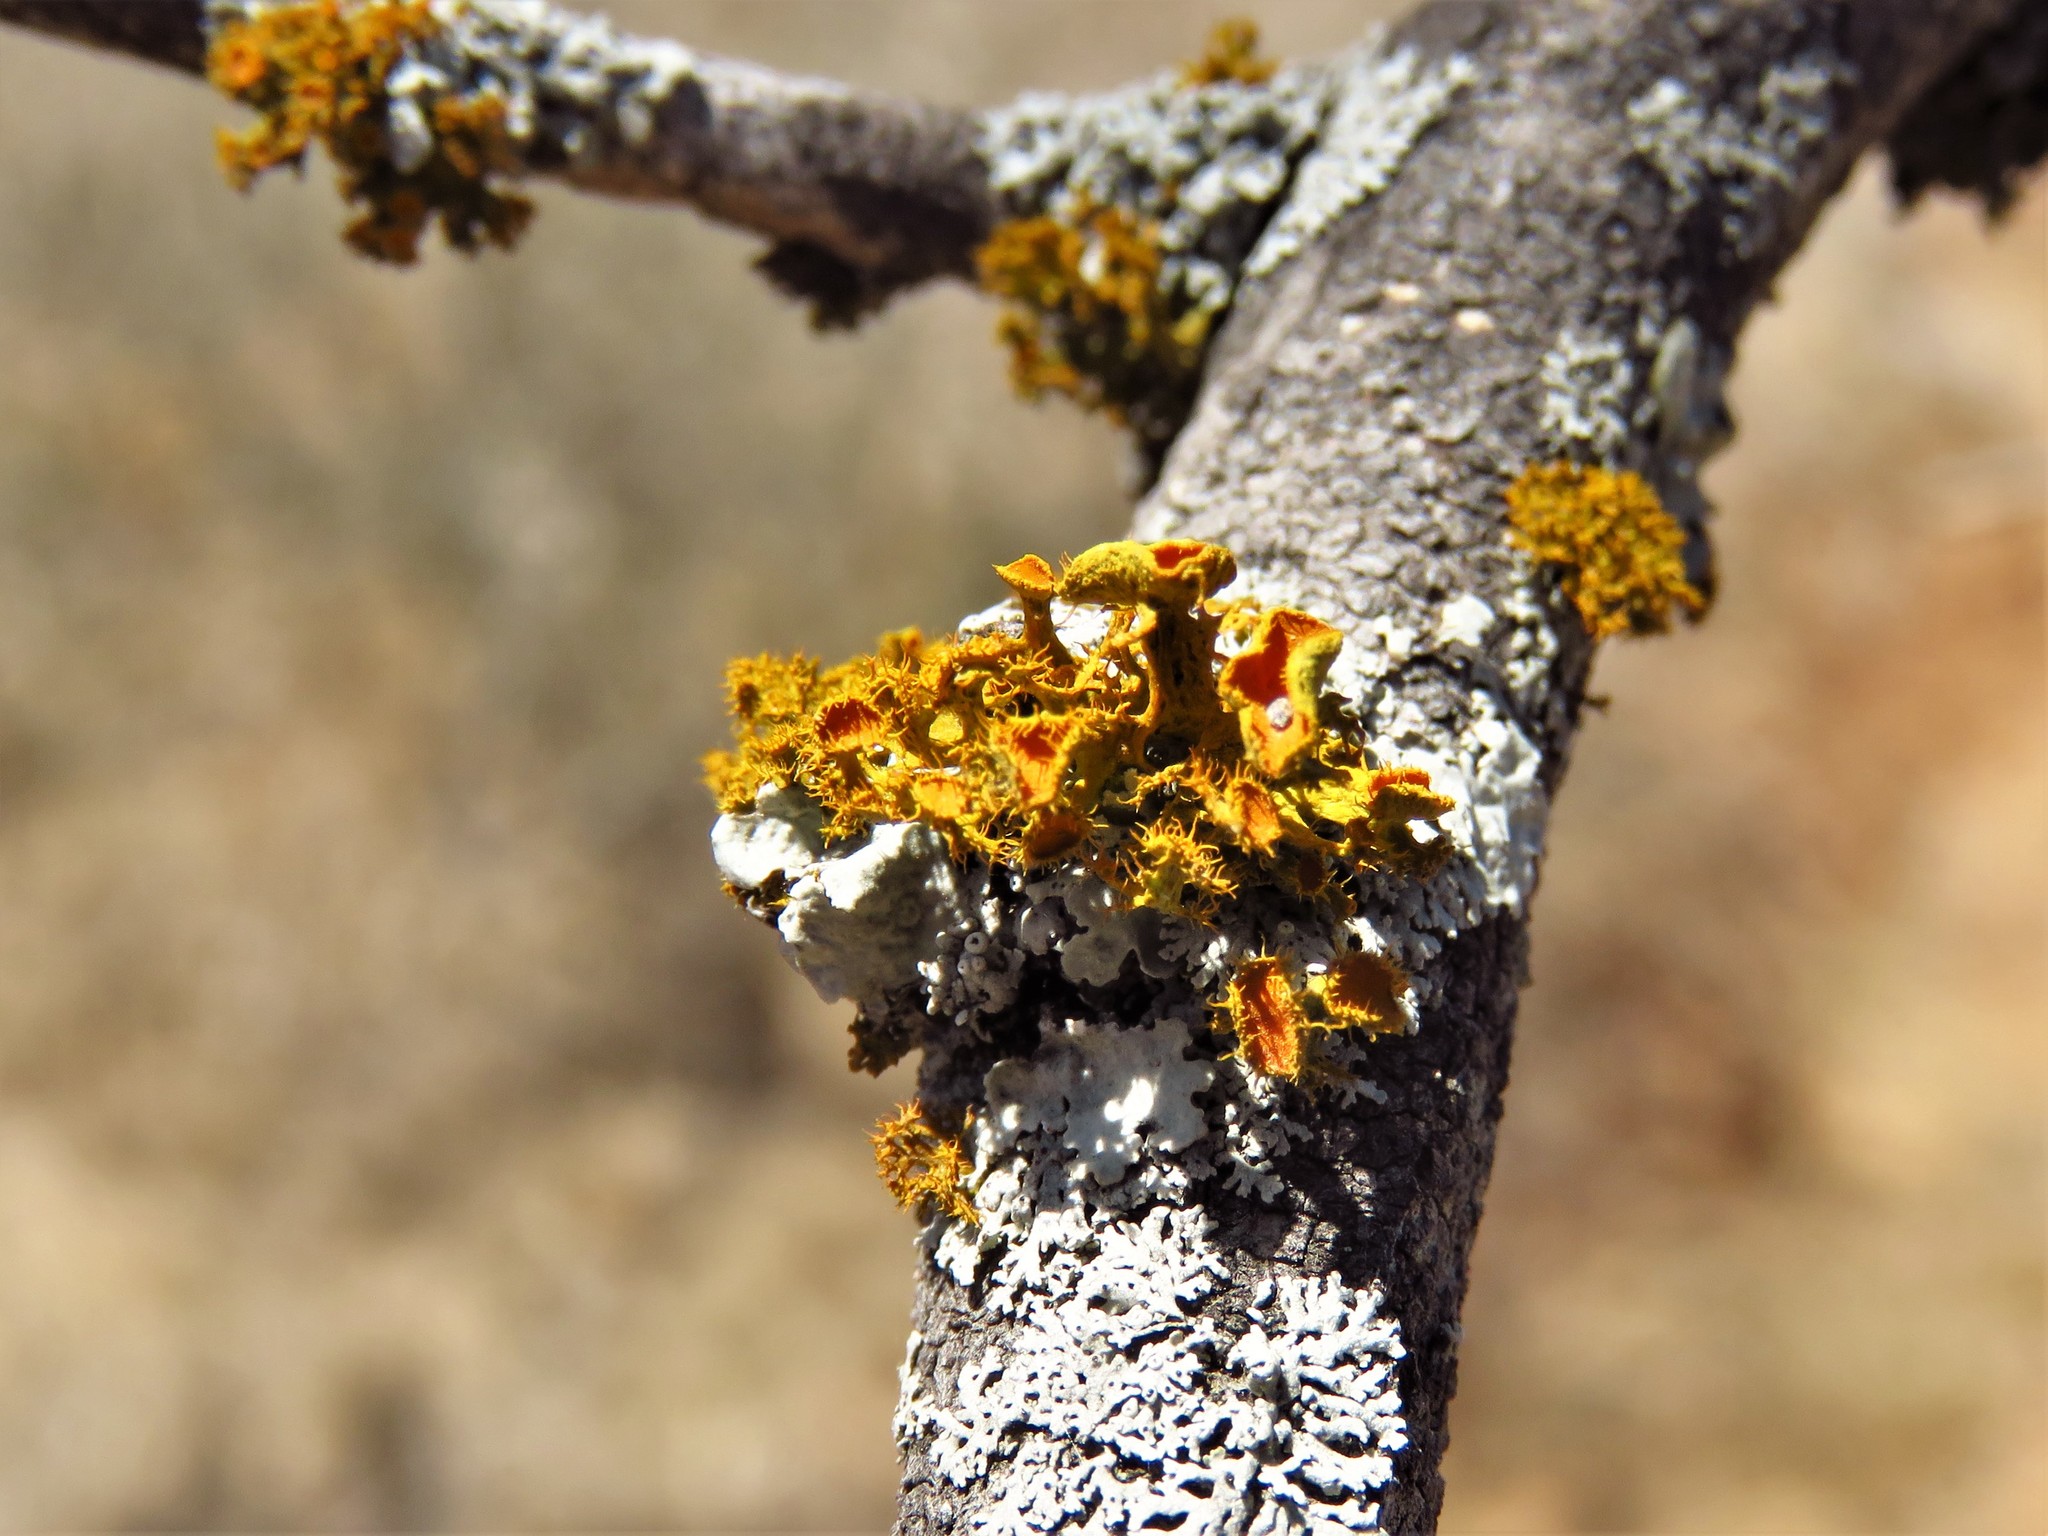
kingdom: Fungi
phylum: Ascomycota
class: Lecanoromycetes
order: Teloschistales
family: Teloschistaceae
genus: Niorma
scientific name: Niorma chrysophthalma
